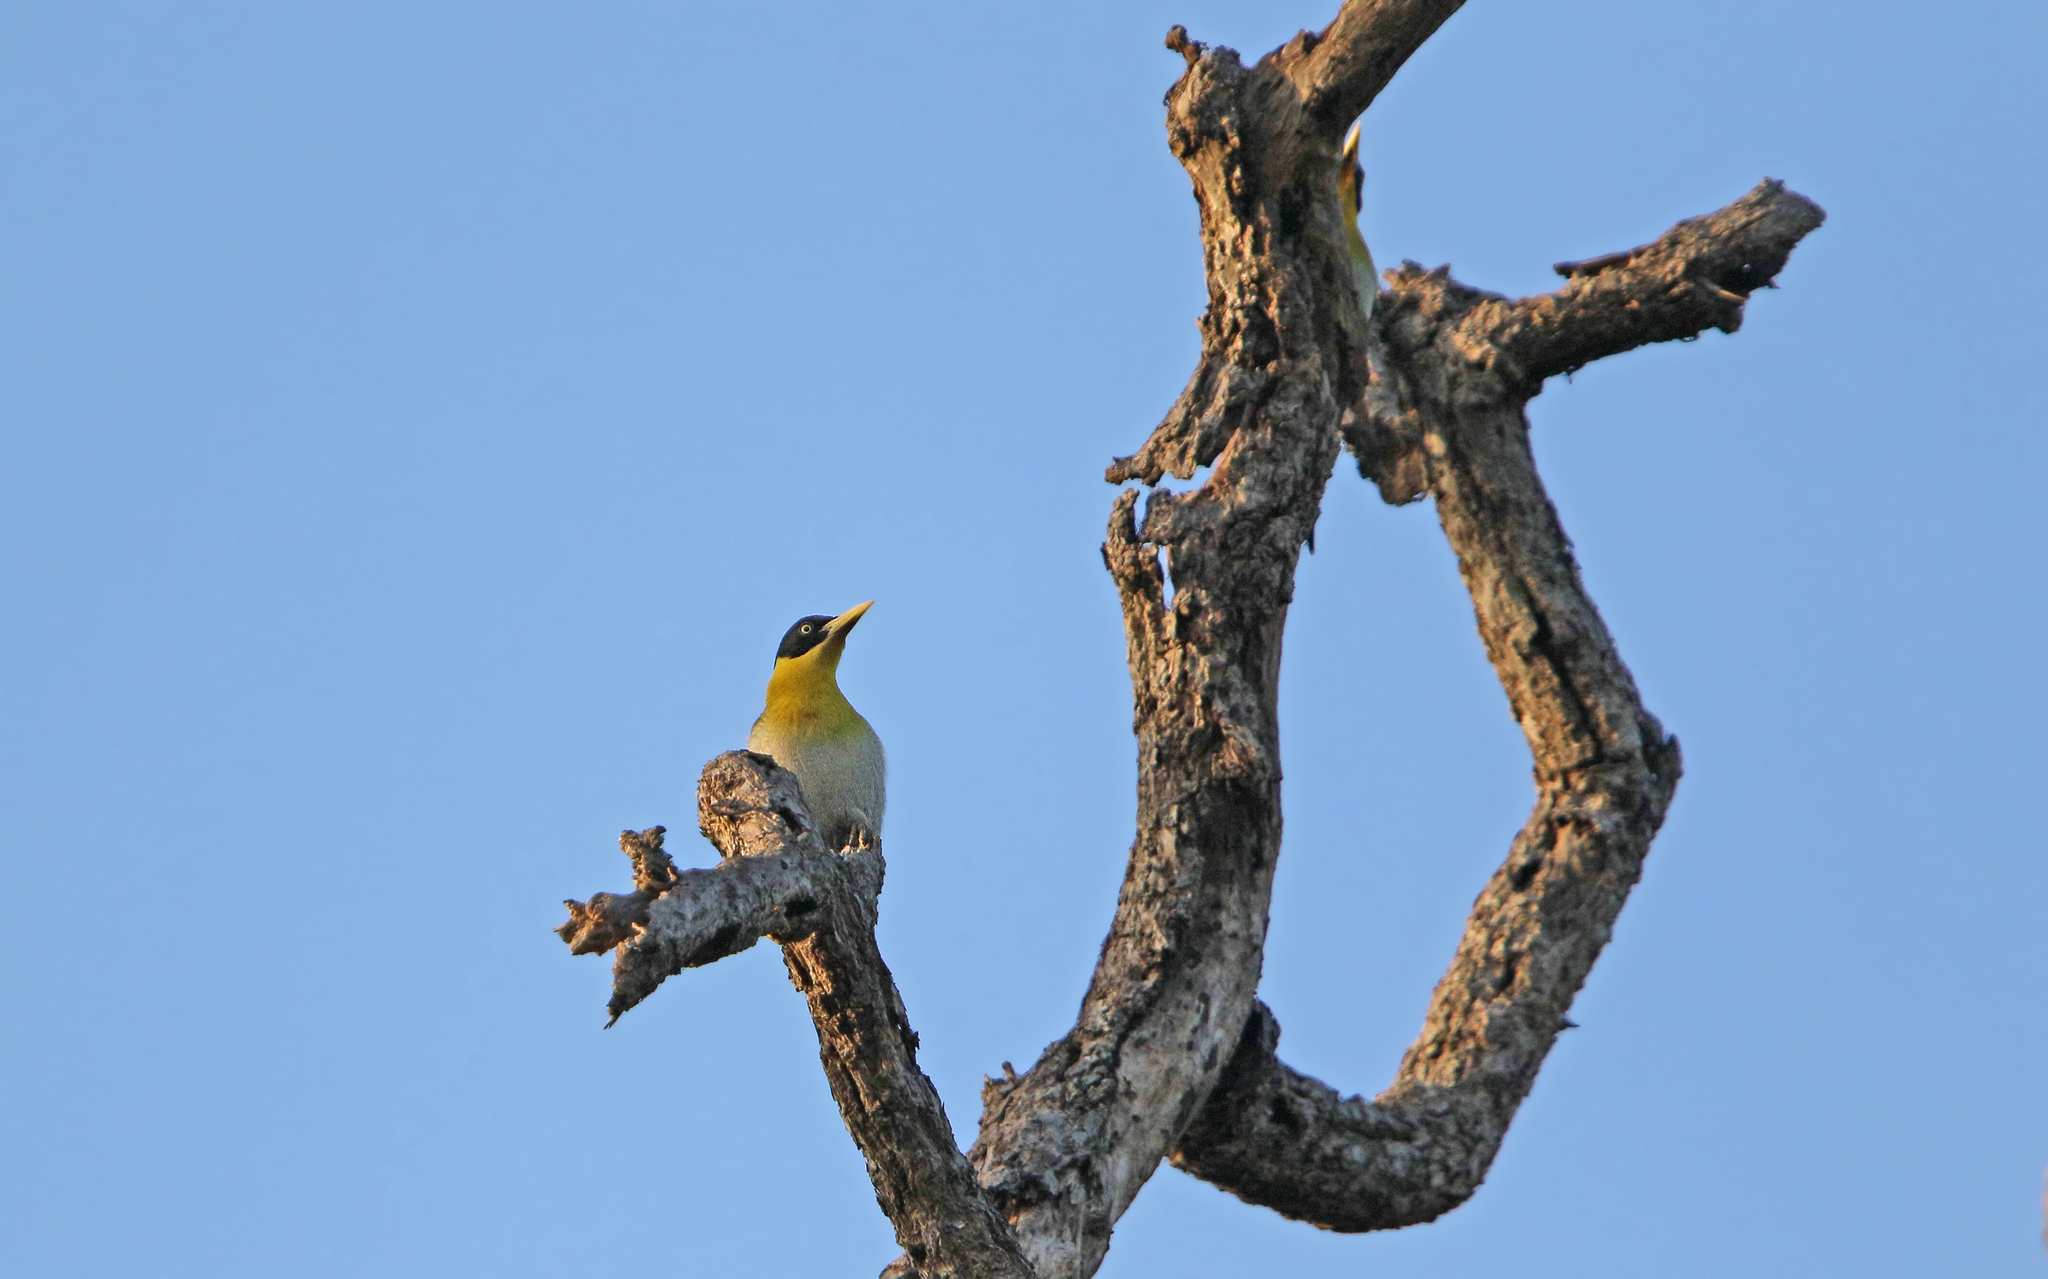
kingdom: Animalia
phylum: Chordata
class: Aves
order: Piciformes
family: Picidae
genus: Picus
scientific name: Picus erythropygius
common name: Black-headed woodpecker
